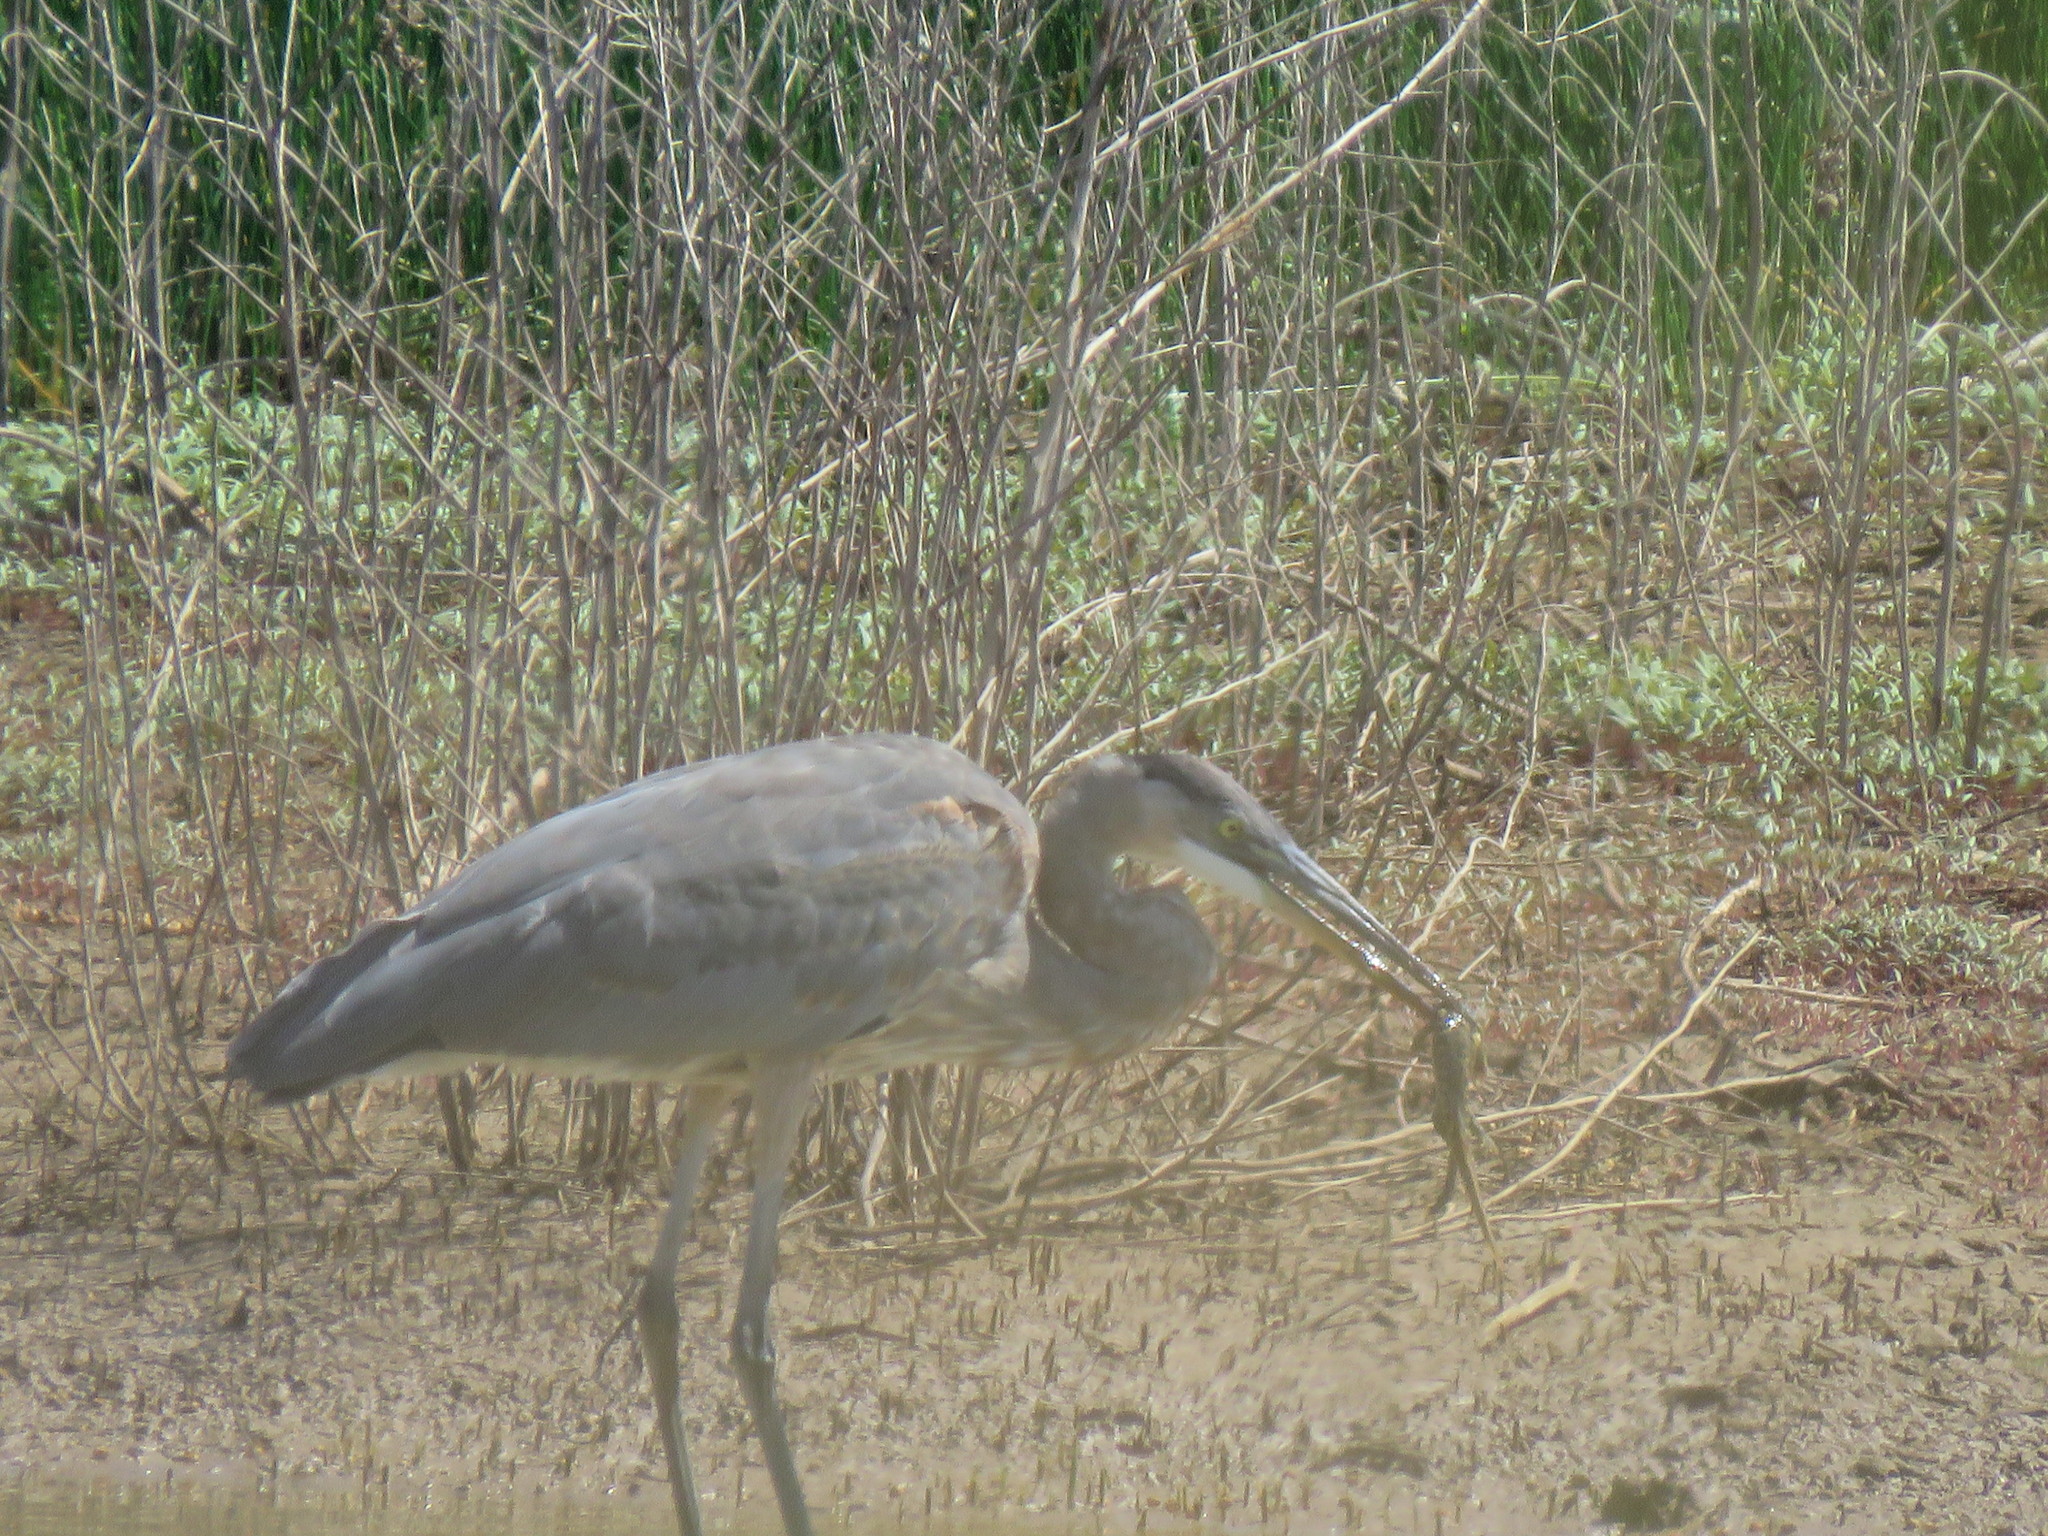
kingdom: Animalia
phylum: Chordata
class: Aves
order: Pelecaniformes
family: Ardeidae
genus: Ardea
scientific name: Ardea herodias
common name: Great blue heron
